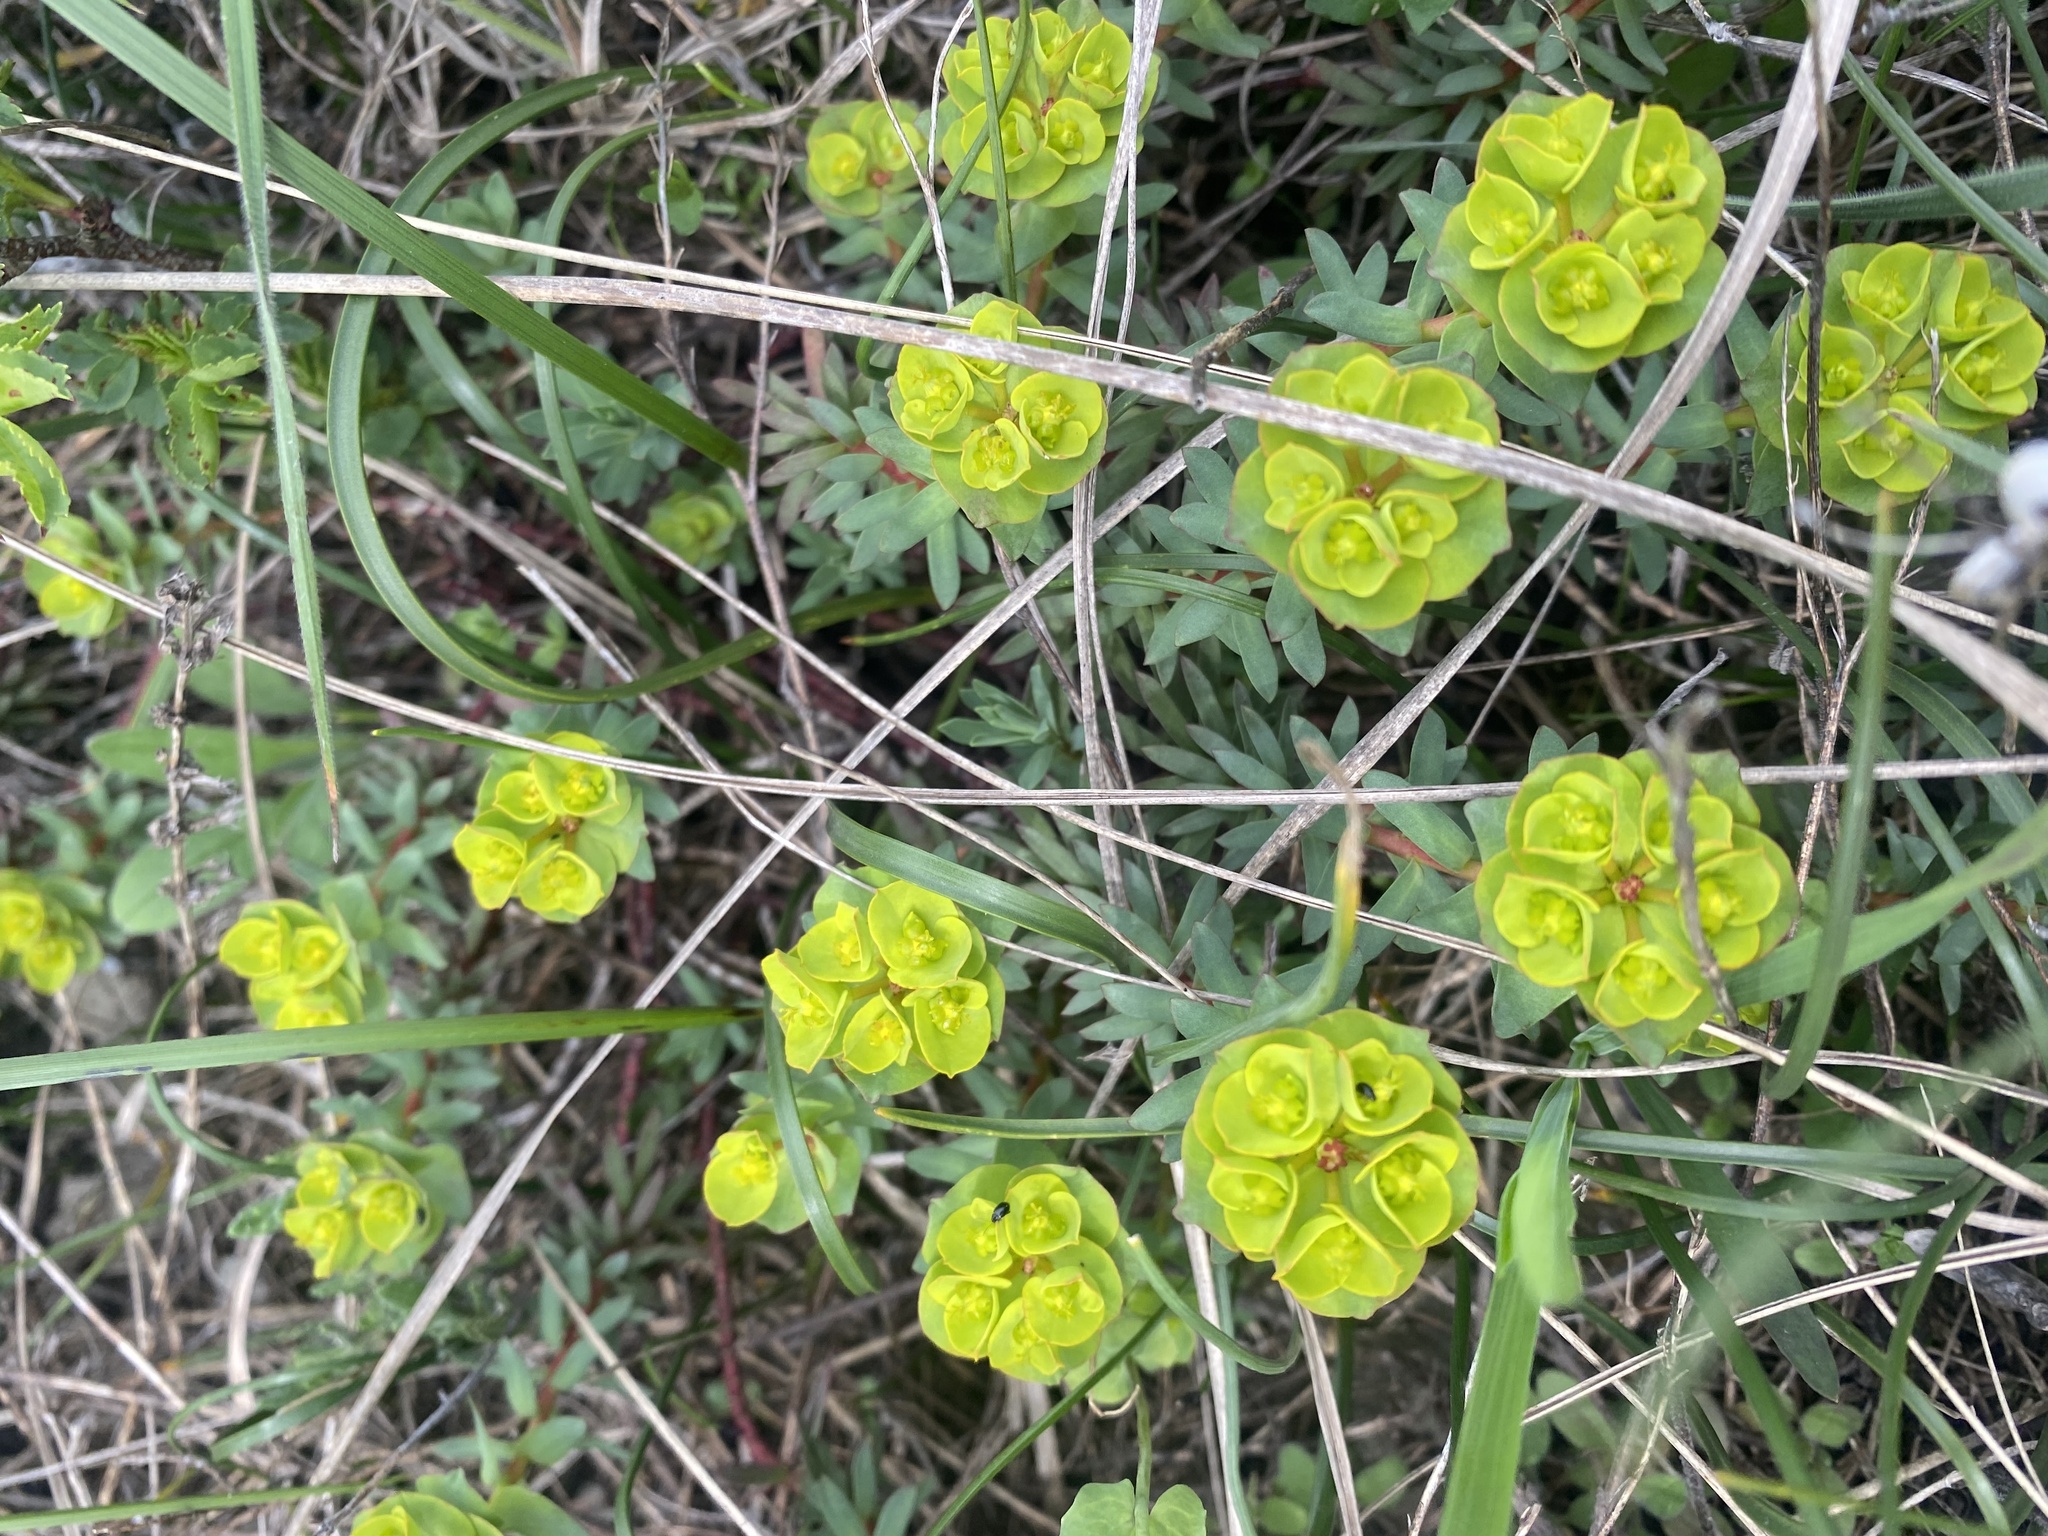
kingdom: Plantae
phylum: Tracheophyta
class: Magnoliopsida
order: Malpighiales
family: Euphorbiaceae
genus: Euphorbia
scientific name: Euphorbia petrophila
